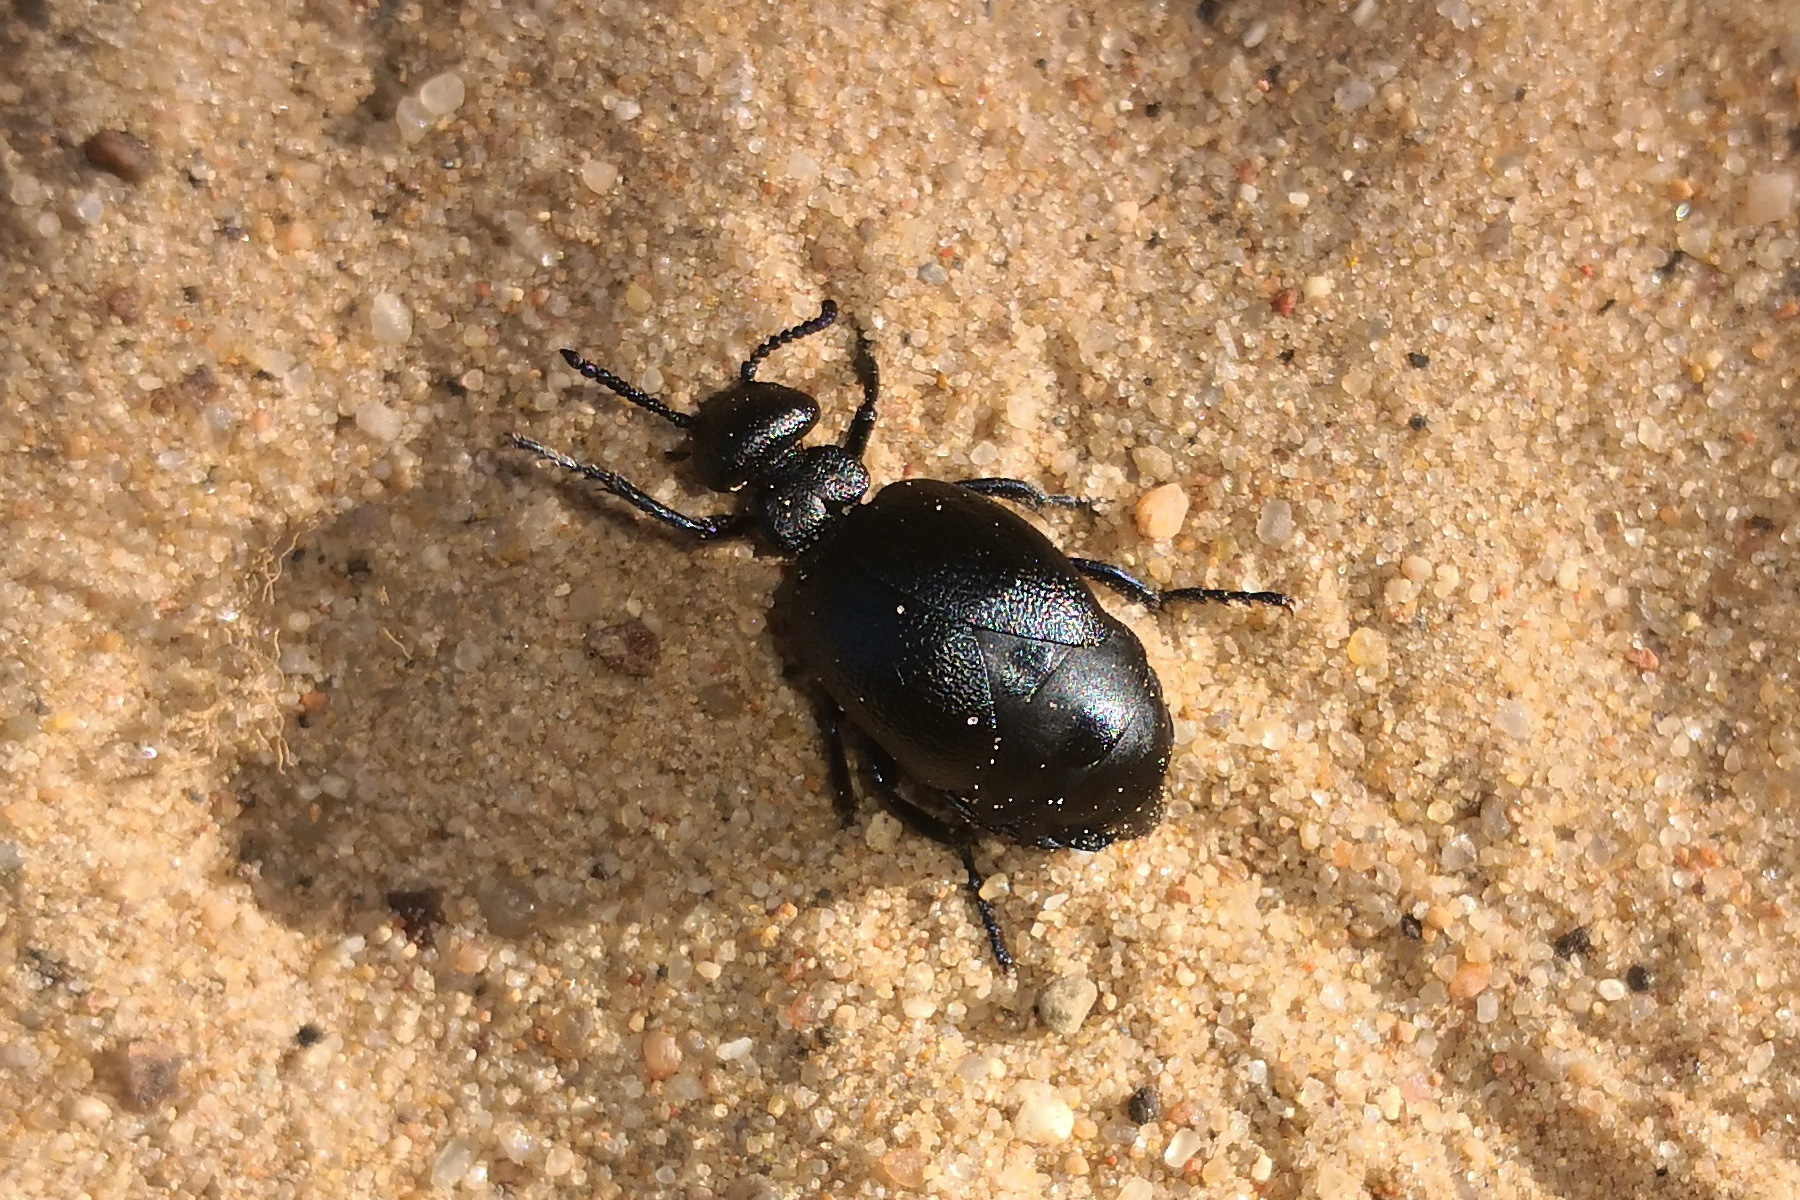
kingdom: Animalia
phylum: Arthropoda
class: Insecta
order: Coleoptera
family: Meloidae
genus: Meloe
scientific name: Meloe brevicollis
